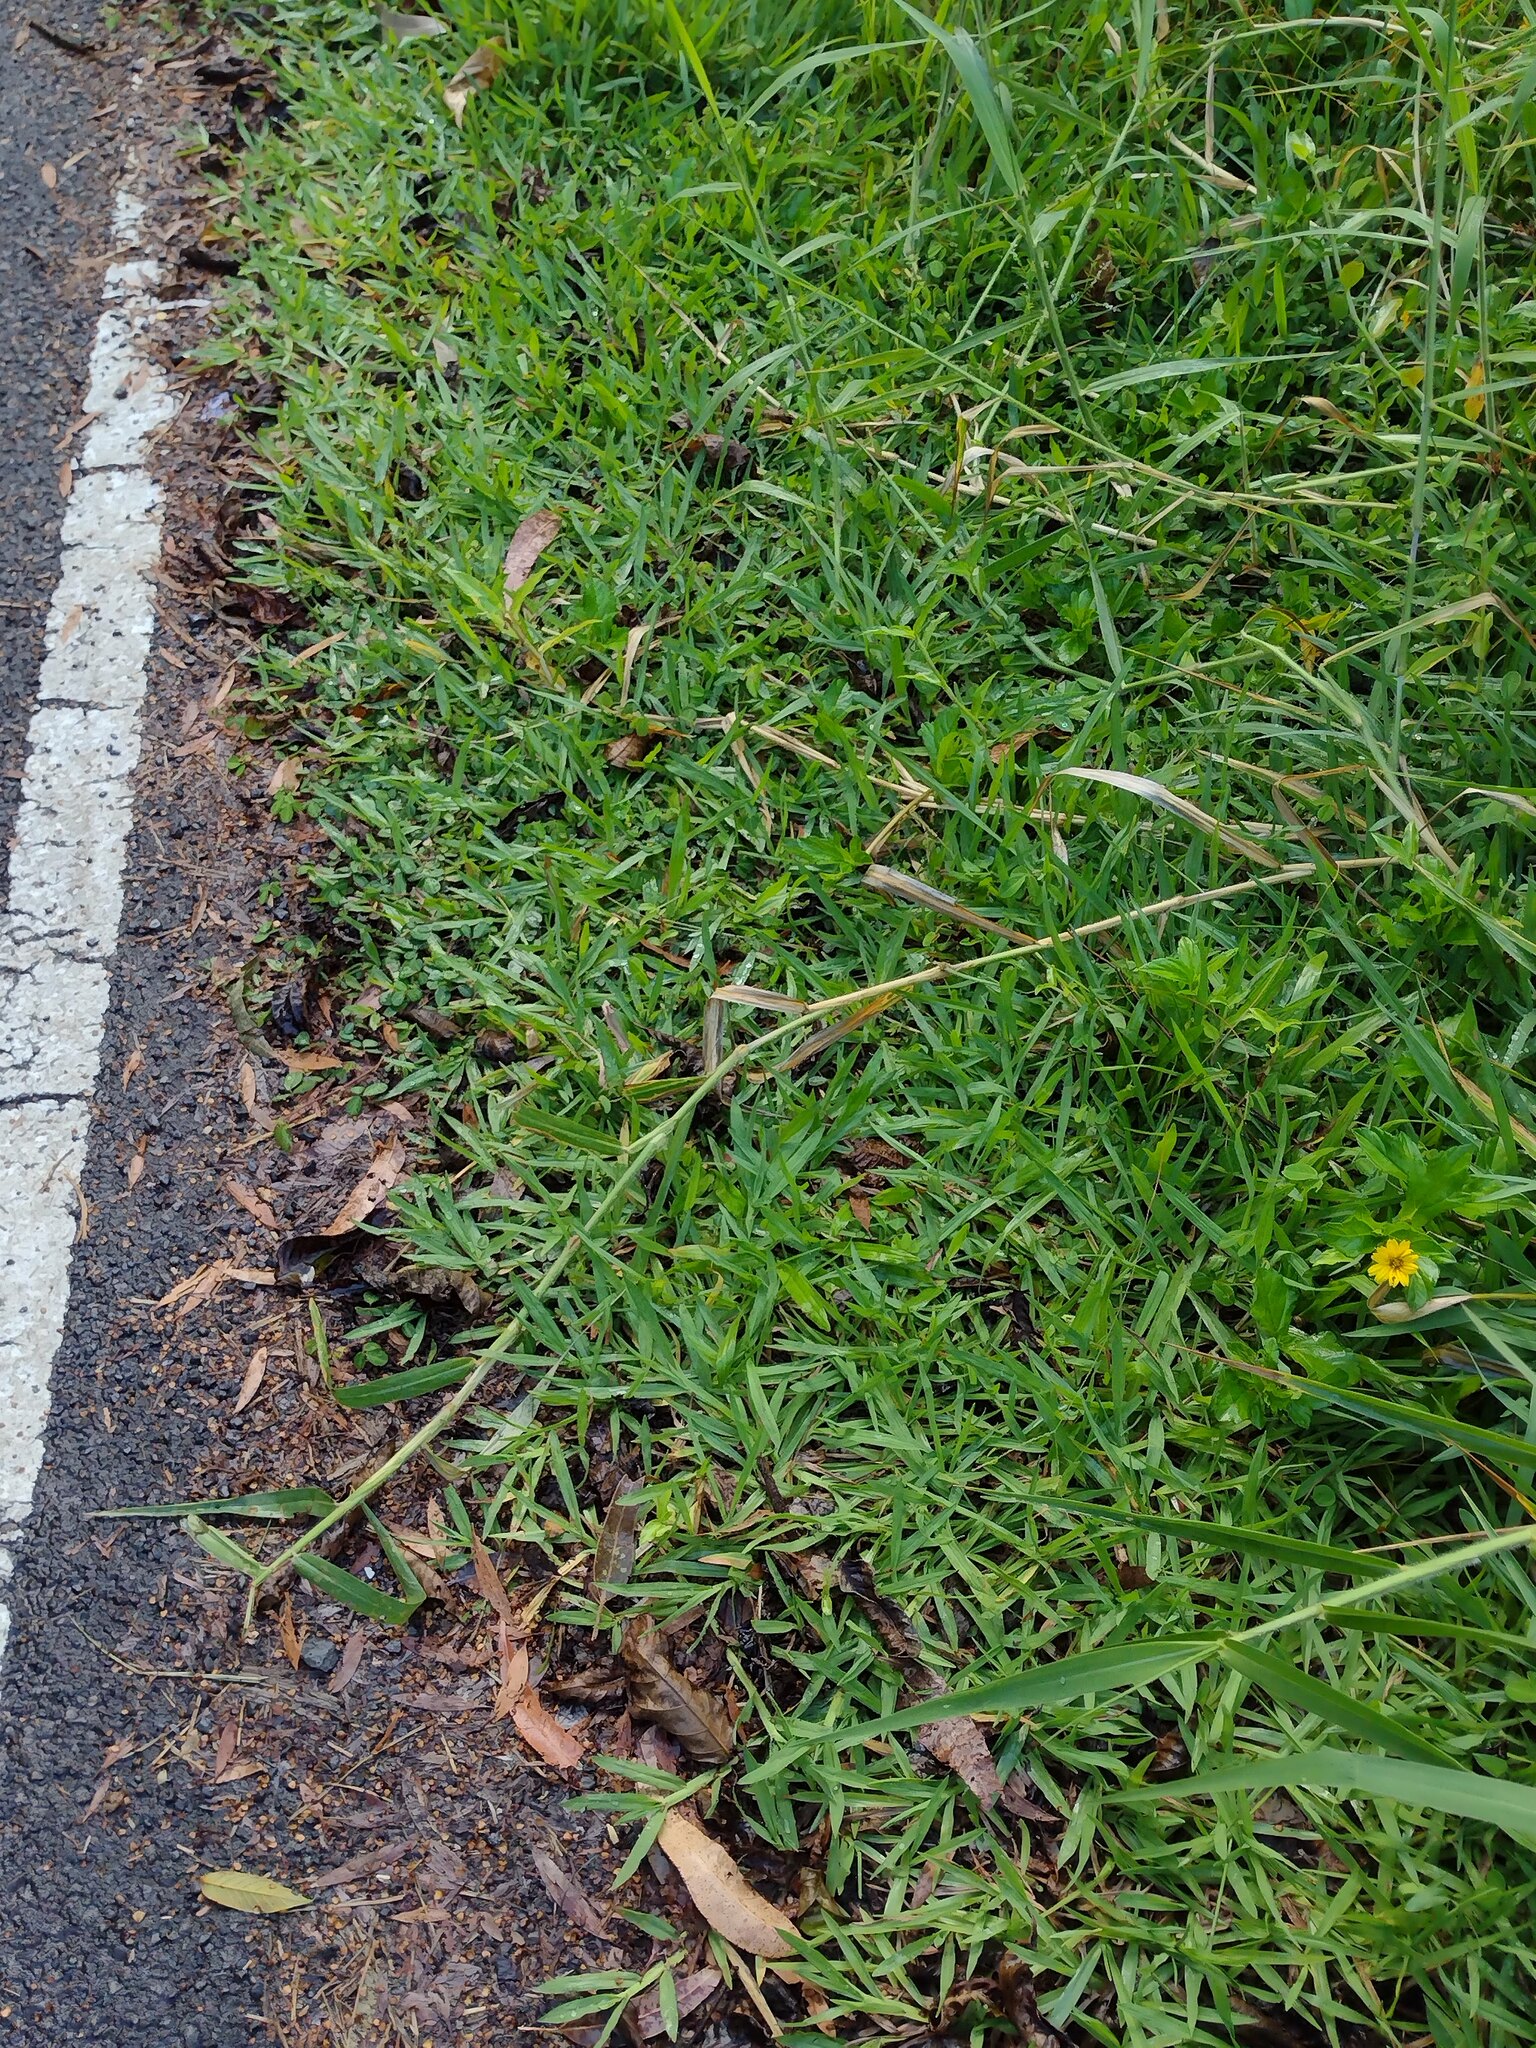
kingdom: Plantae
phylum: Tracheophyta
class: Liliopsida
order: Poales
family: Poaceae
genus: Urochloa
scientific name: Urochloa mutica
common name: Para grass
